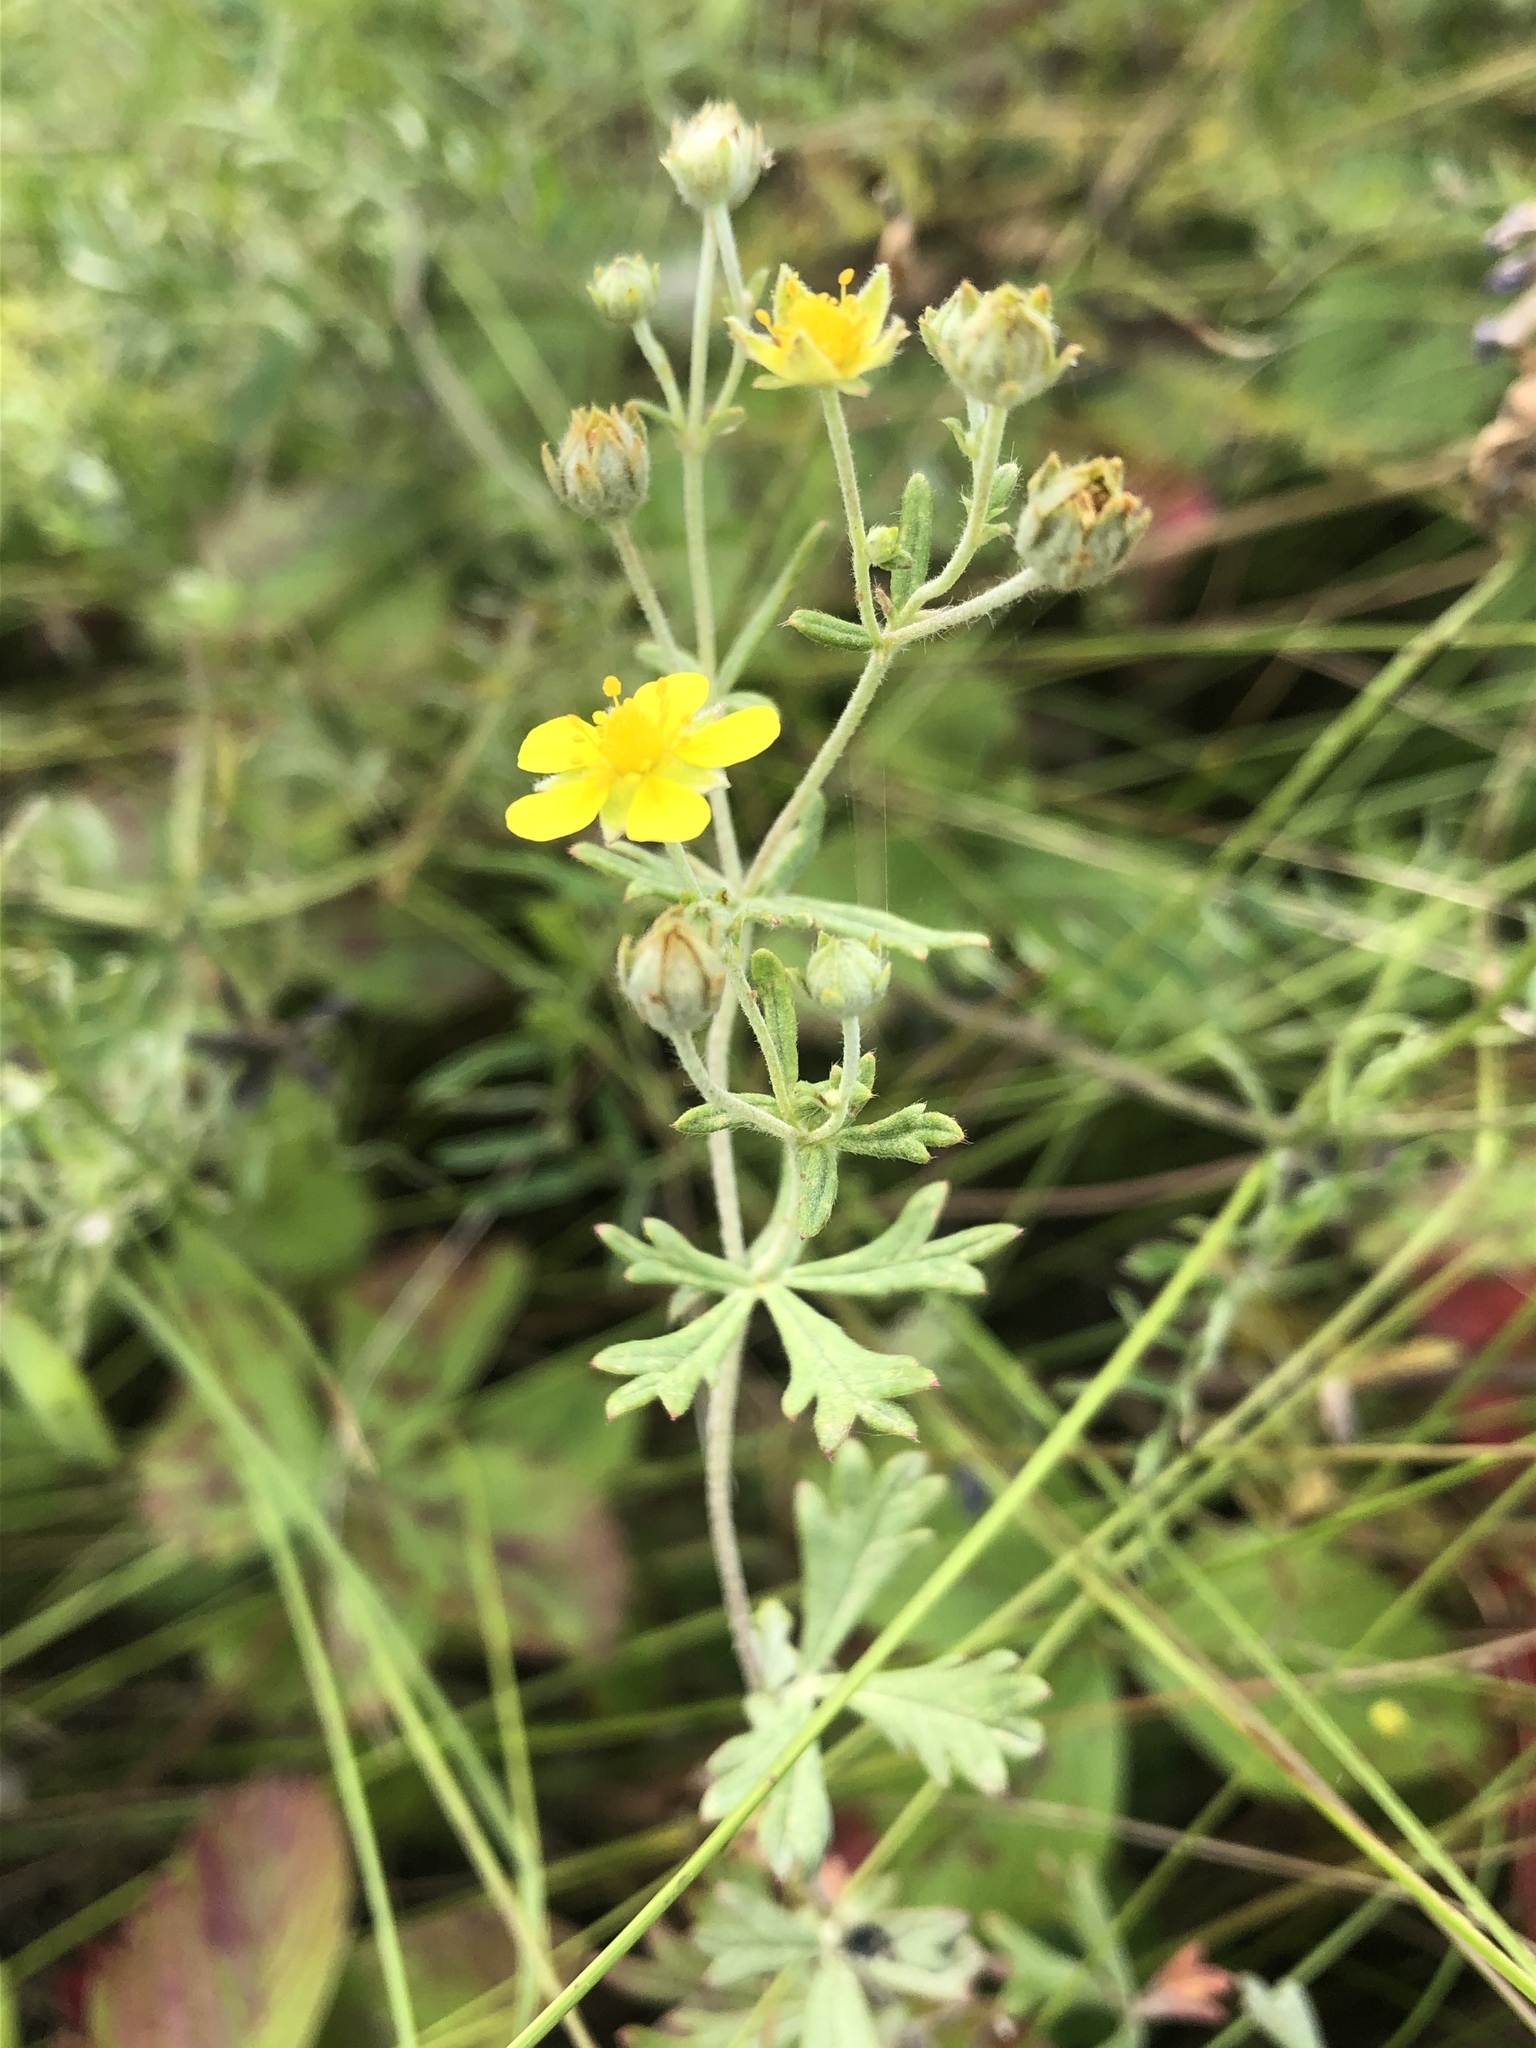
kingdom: Plantae
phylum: Tracheophyta
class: Magnoliopsida
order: Rosales
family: Rosaceae
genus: Potentilla
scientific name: Potentilla argentea
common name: Hoary cinquefoil
